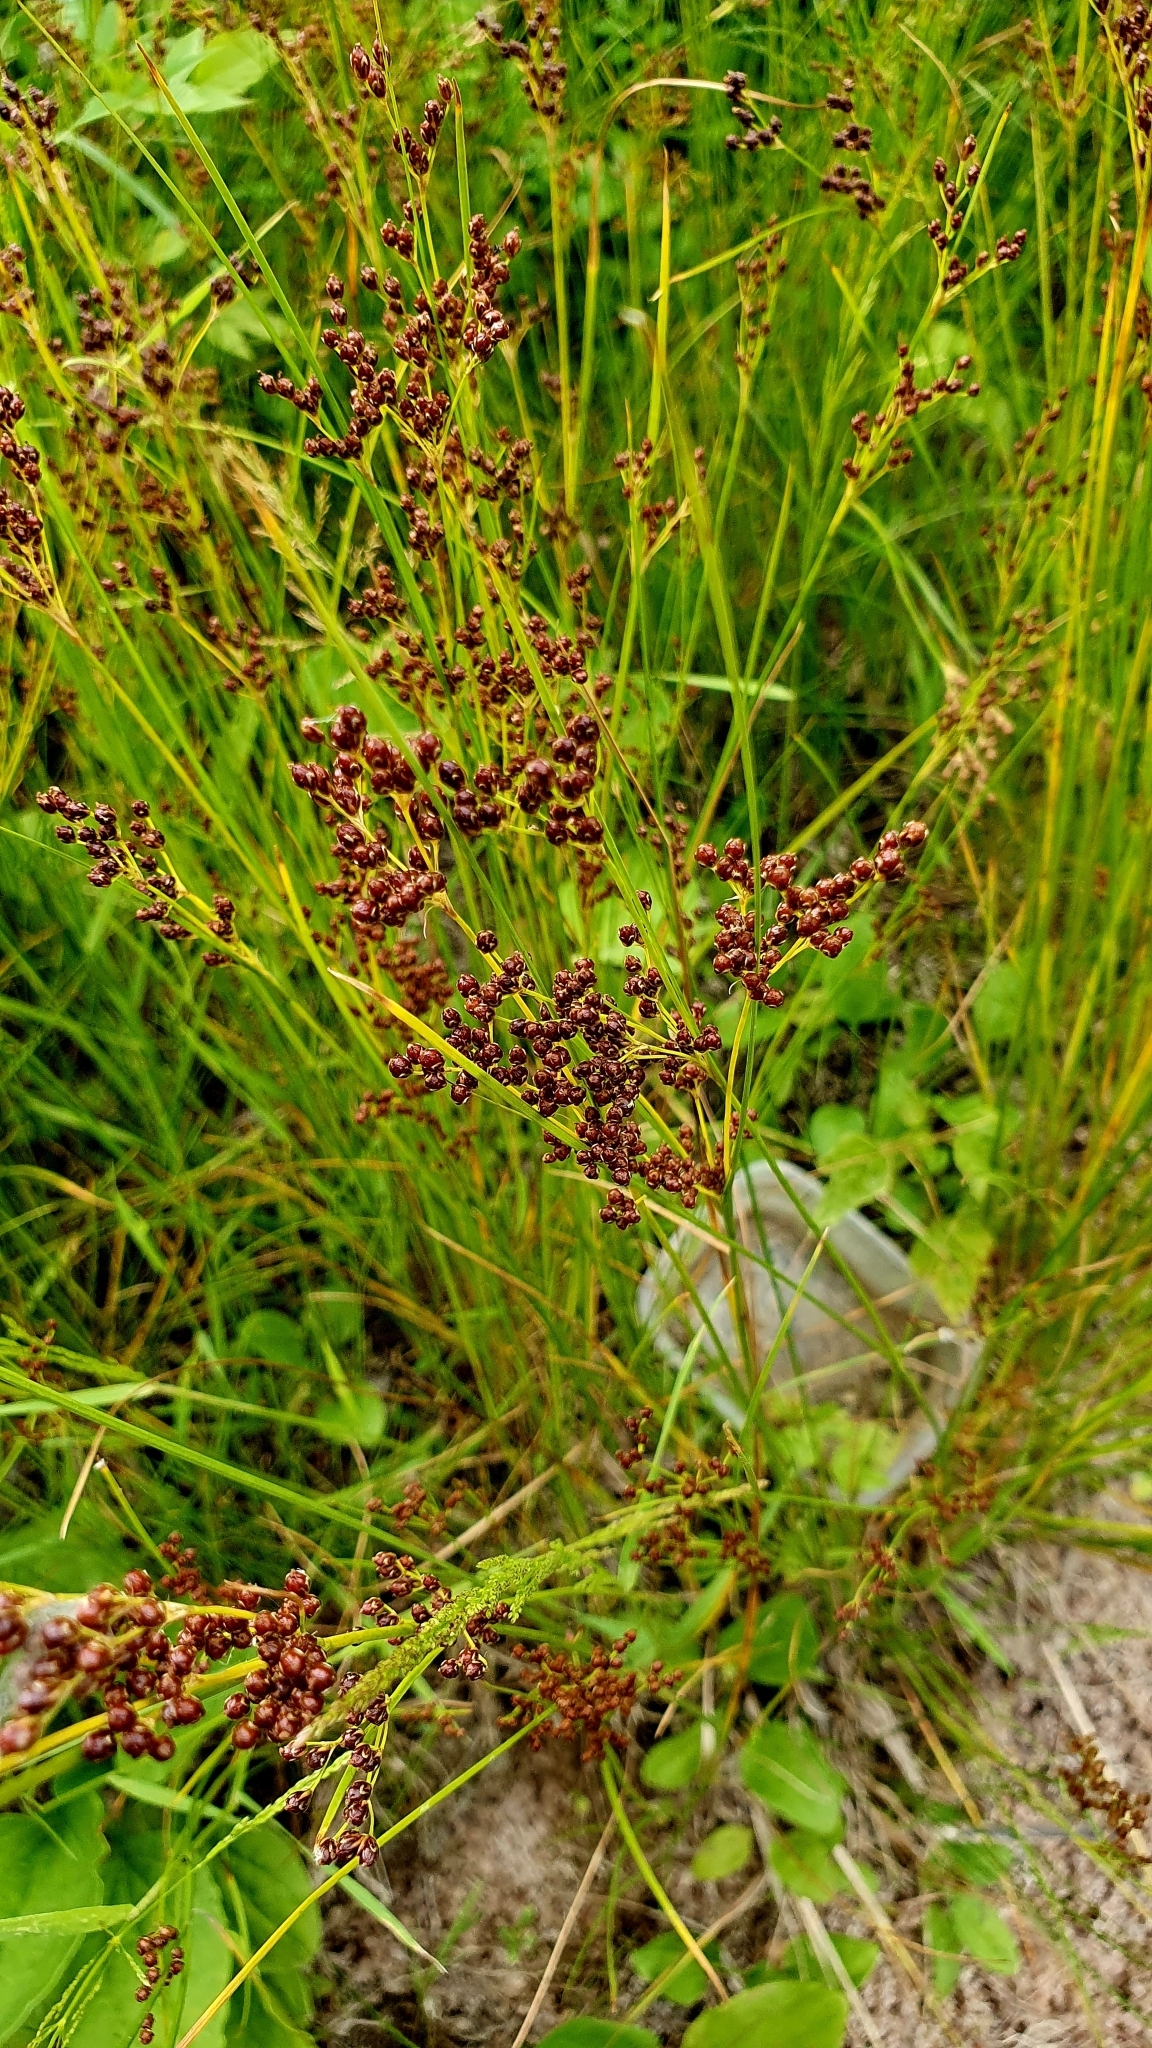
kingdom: Plantae
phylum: Tracheophyta
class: Liliopsida
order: Poales
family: Juncaceae
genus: Juncus
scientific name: Juncus compressus
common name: Round-fruited rush
